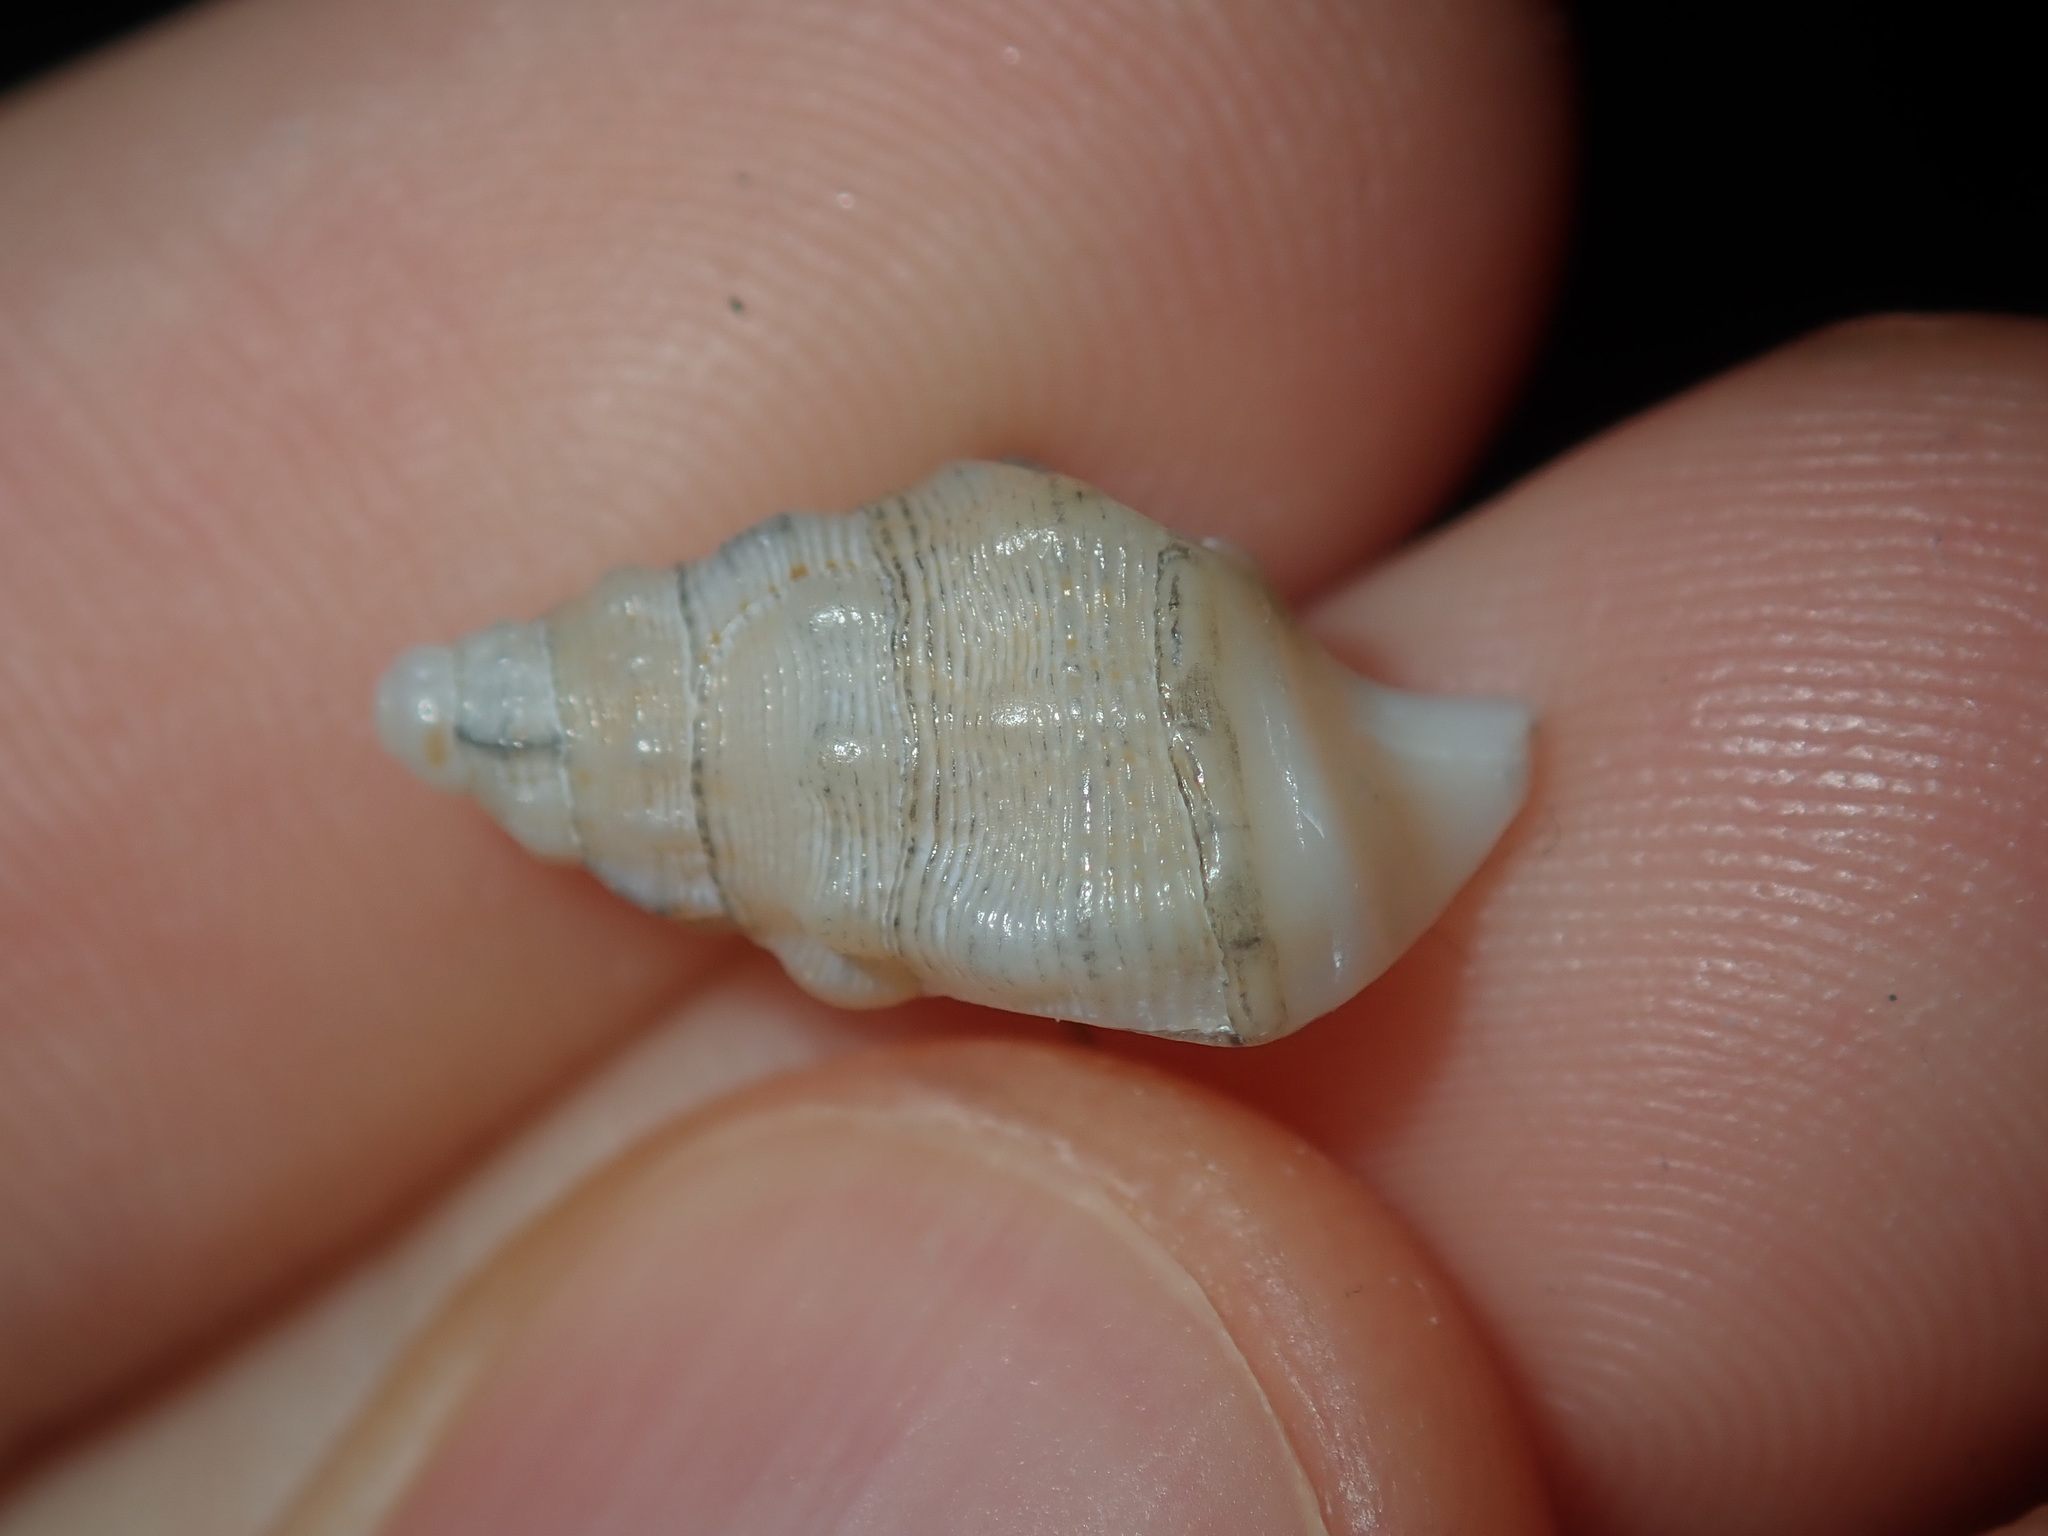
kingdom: Animalia
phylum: Mollusca
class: Gastropoda
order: Littorinimorpha
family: Cymatiidae
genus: Austrosassia
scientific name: Austrosassia parkinsonia
